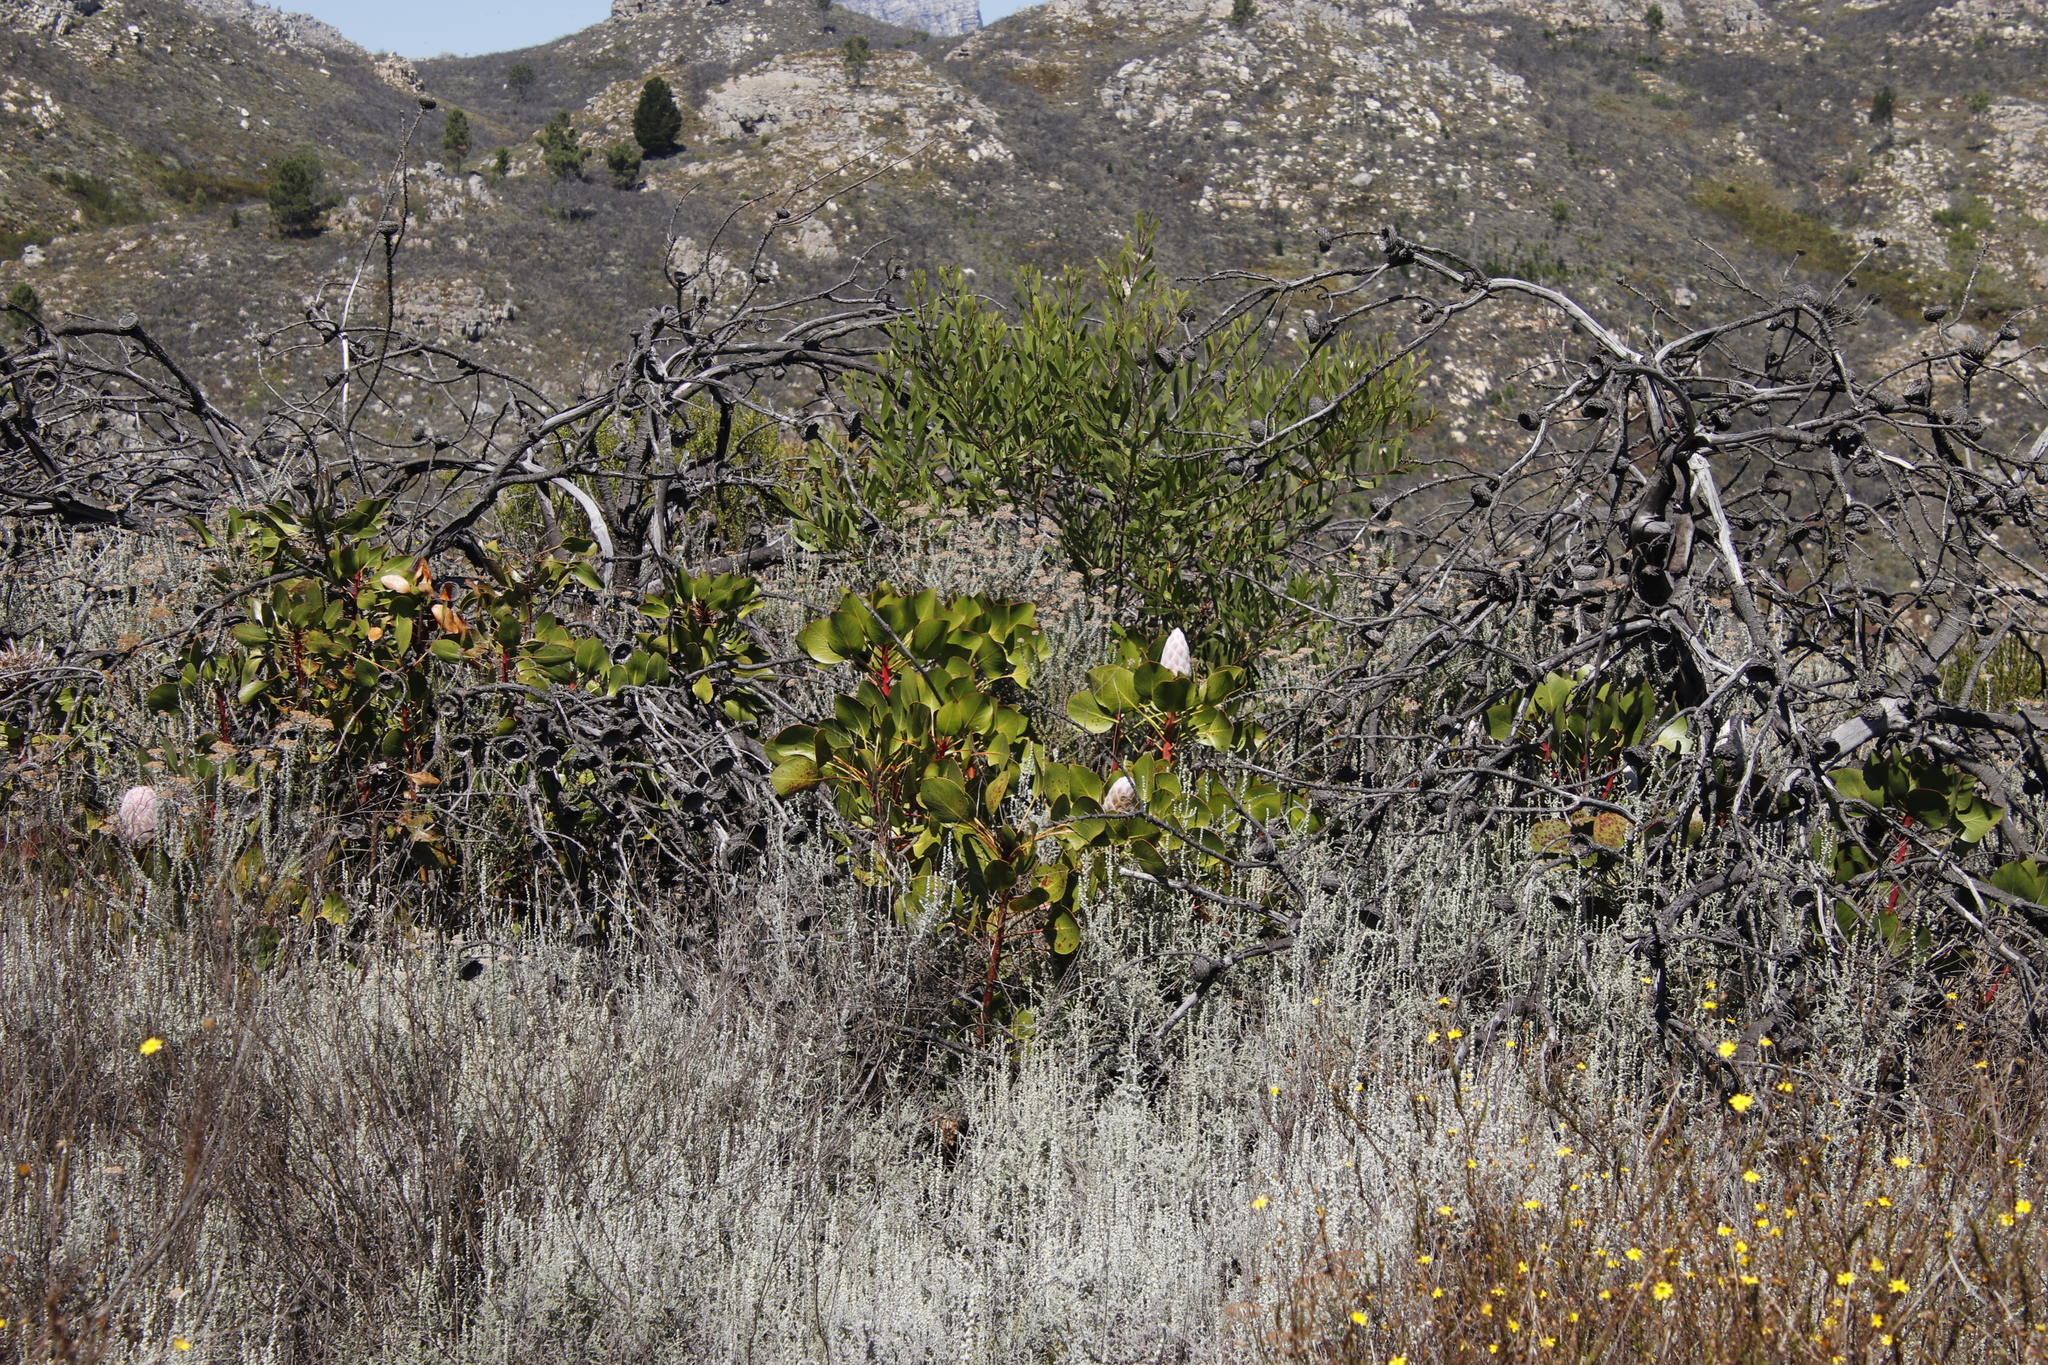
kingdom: Plantae
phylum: Tracheophyta
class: Magnoliopsida
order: Proteales
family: Proteaceae
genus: Protea
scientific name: Protea cynaroides
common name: King protea
